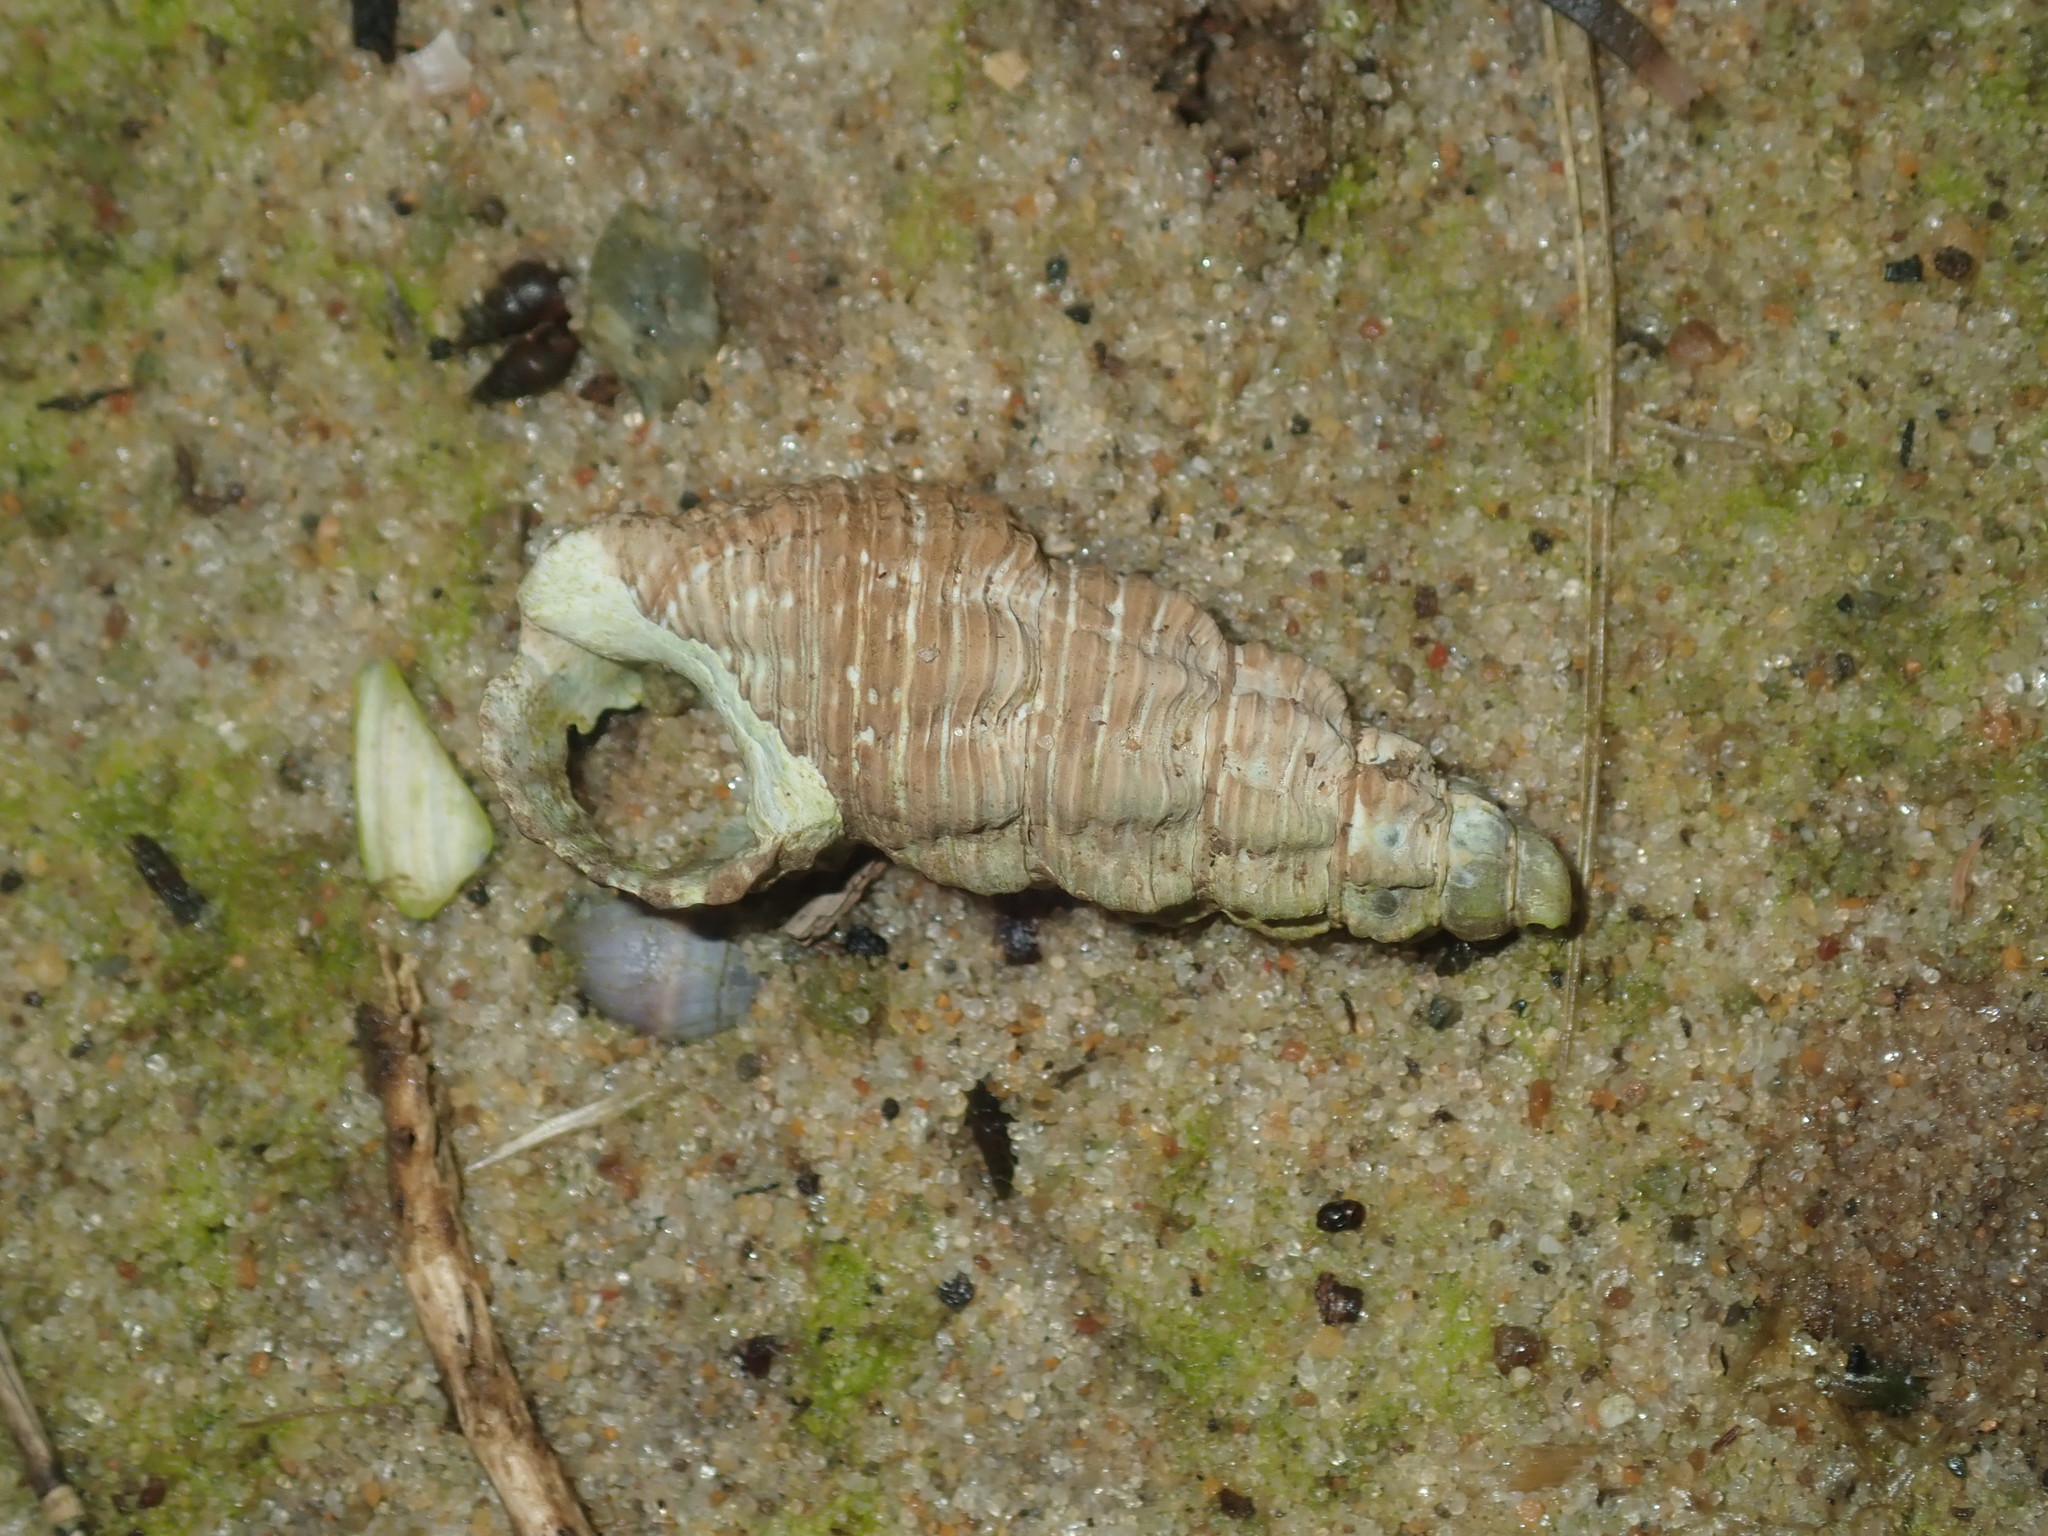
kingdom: Animalia
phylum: Mollusca
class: Gastropoda
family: Batillariidae
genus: Batillaria
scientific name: Batillaria australis
